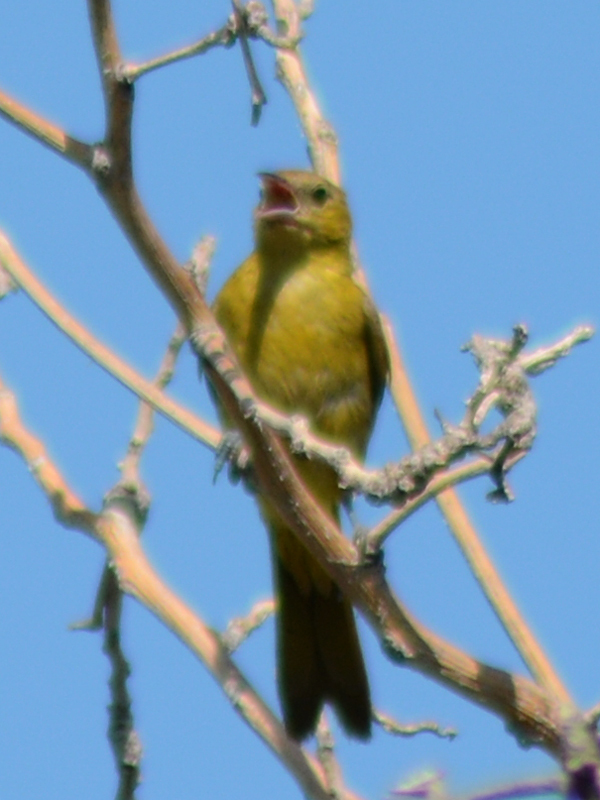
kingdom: Animalia
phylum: Chordata
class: Aves
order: Passeriformes
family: Icteridae
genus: Icterus
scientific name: Icterus cucullatus
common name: Hooded oriole
